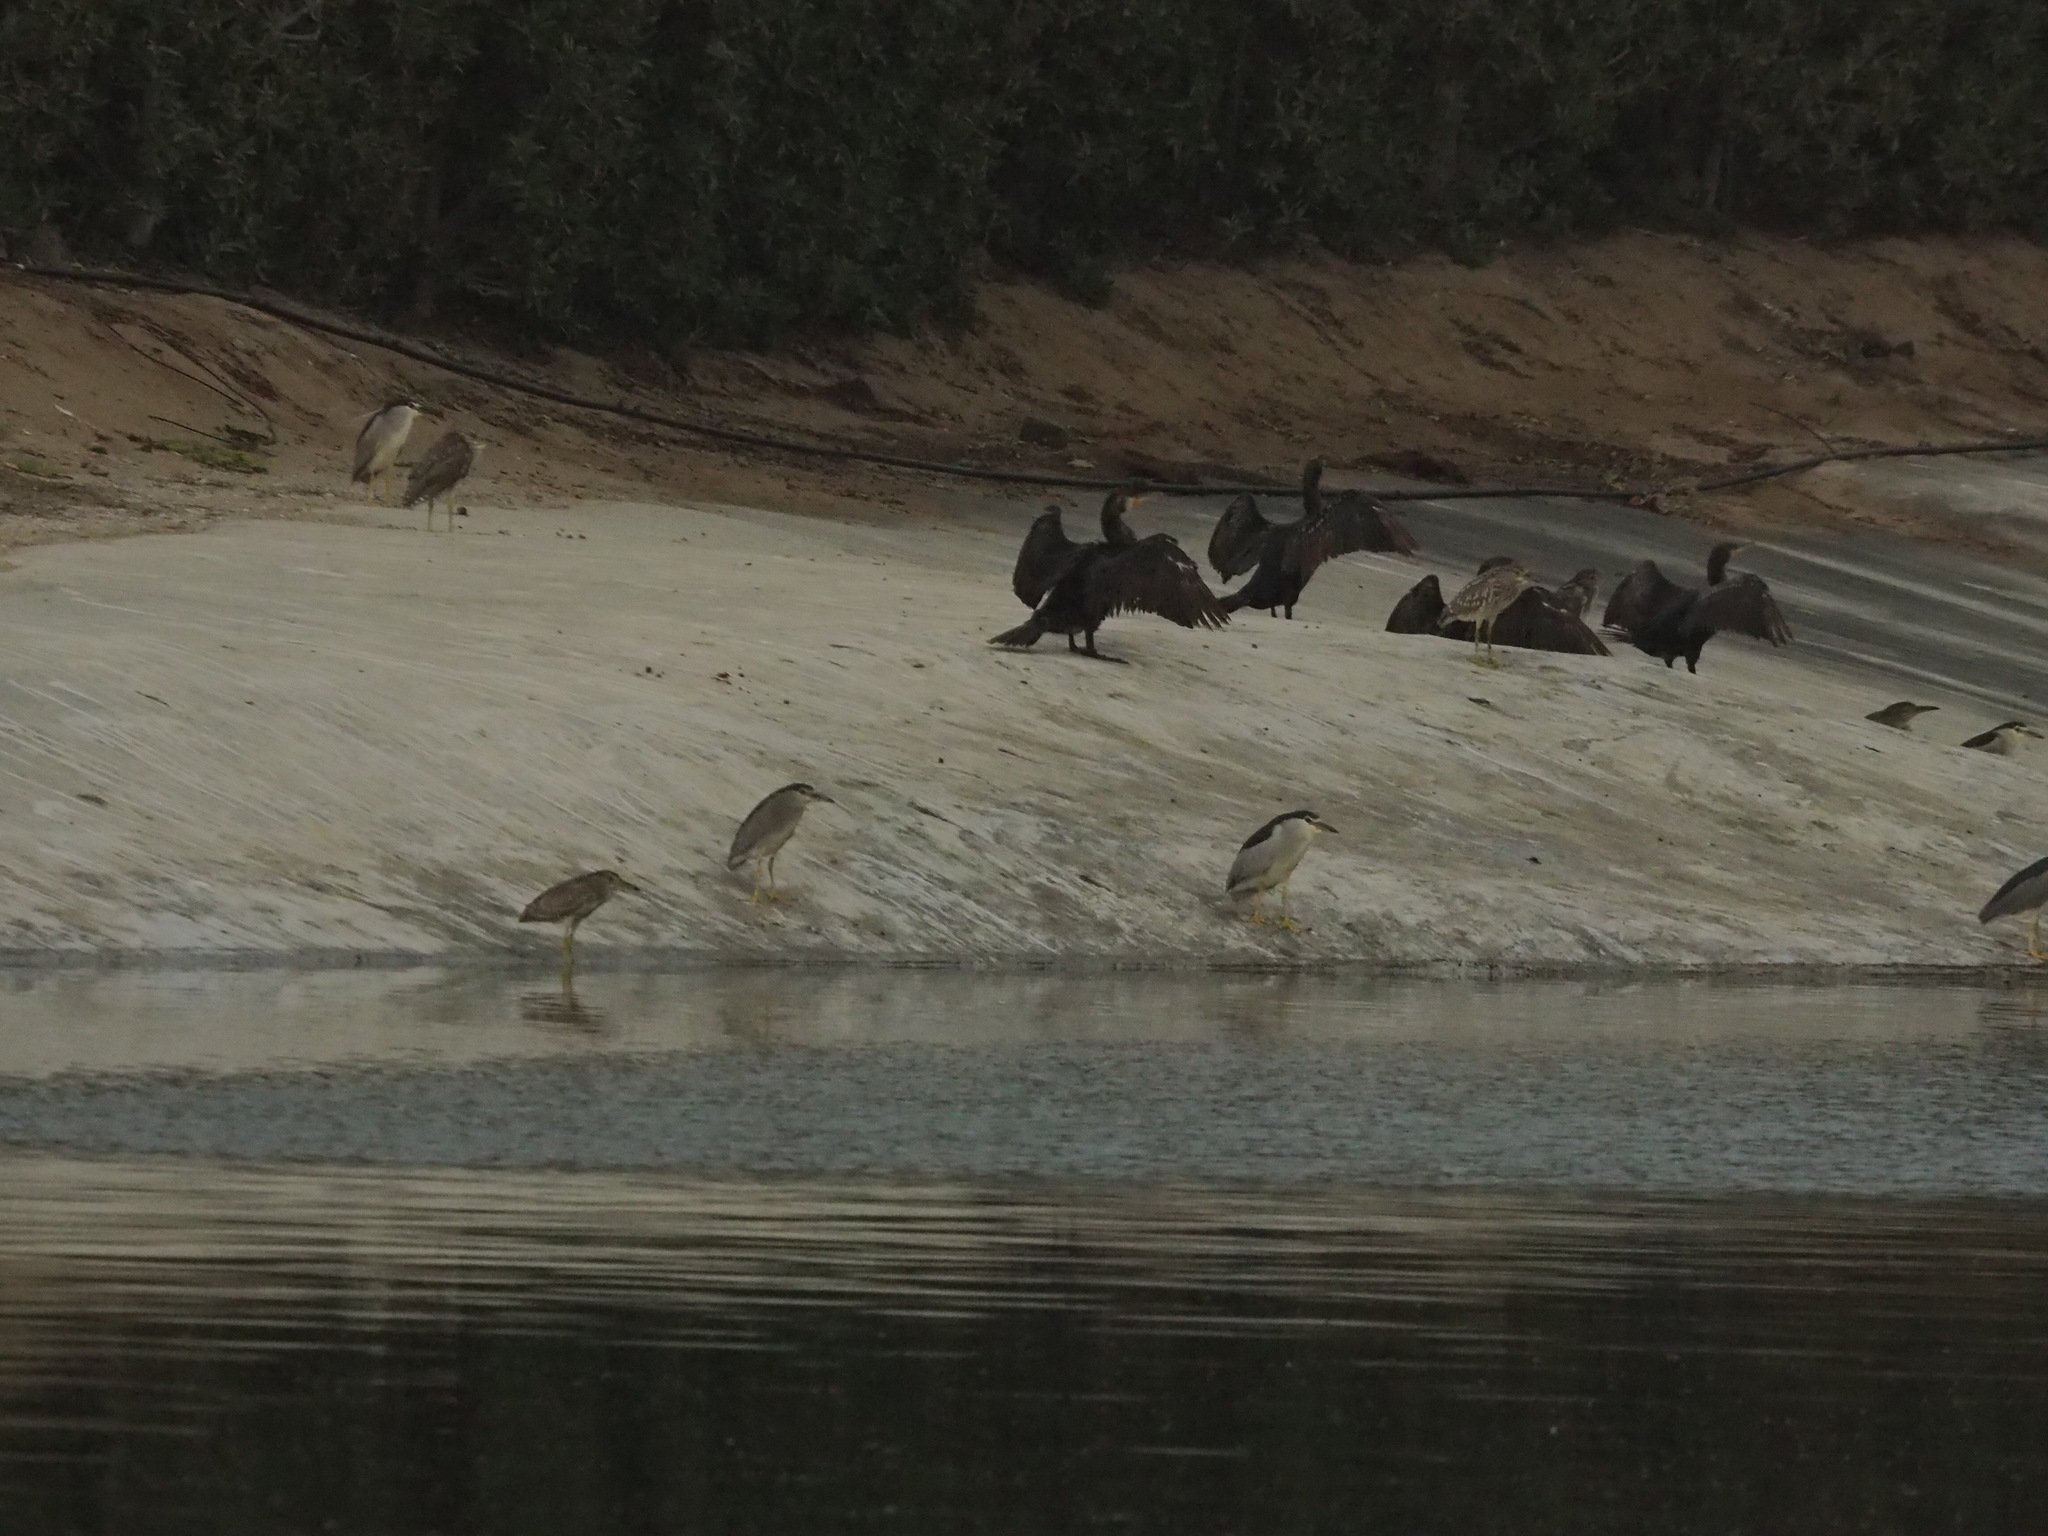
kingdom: Animalia
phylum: Chordata
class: Aves
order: Pelecaniformes
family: Ardeidae
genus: Nycticorax
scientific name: Nycticorax nycticorax
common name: Black-crowned night heron
